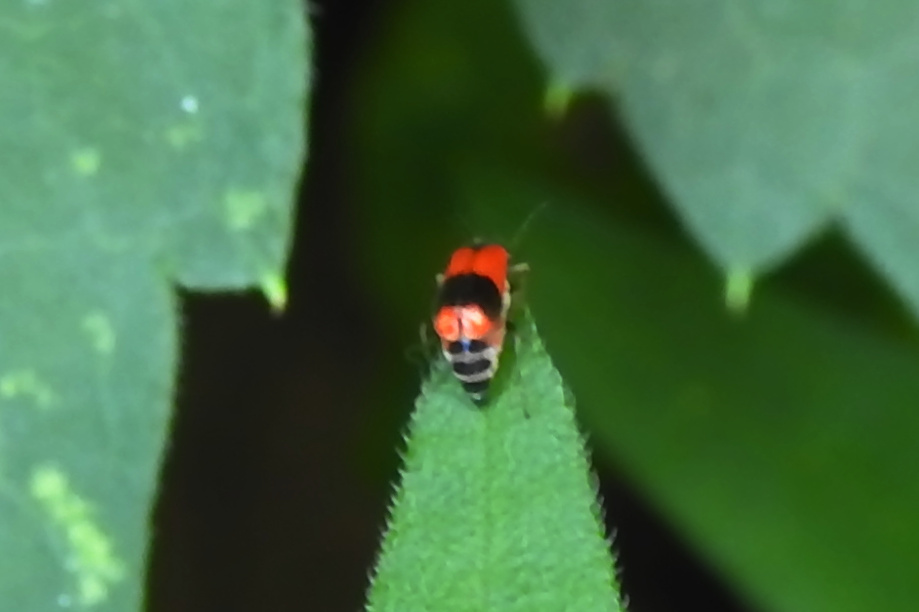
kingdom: Animalia
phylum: Arthropoda
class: Insecta
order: Coleoptera
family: Melyridae
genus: Anthocomus
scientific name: Anthocomus equestris
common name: Black-banded soft-winged flower beetle
